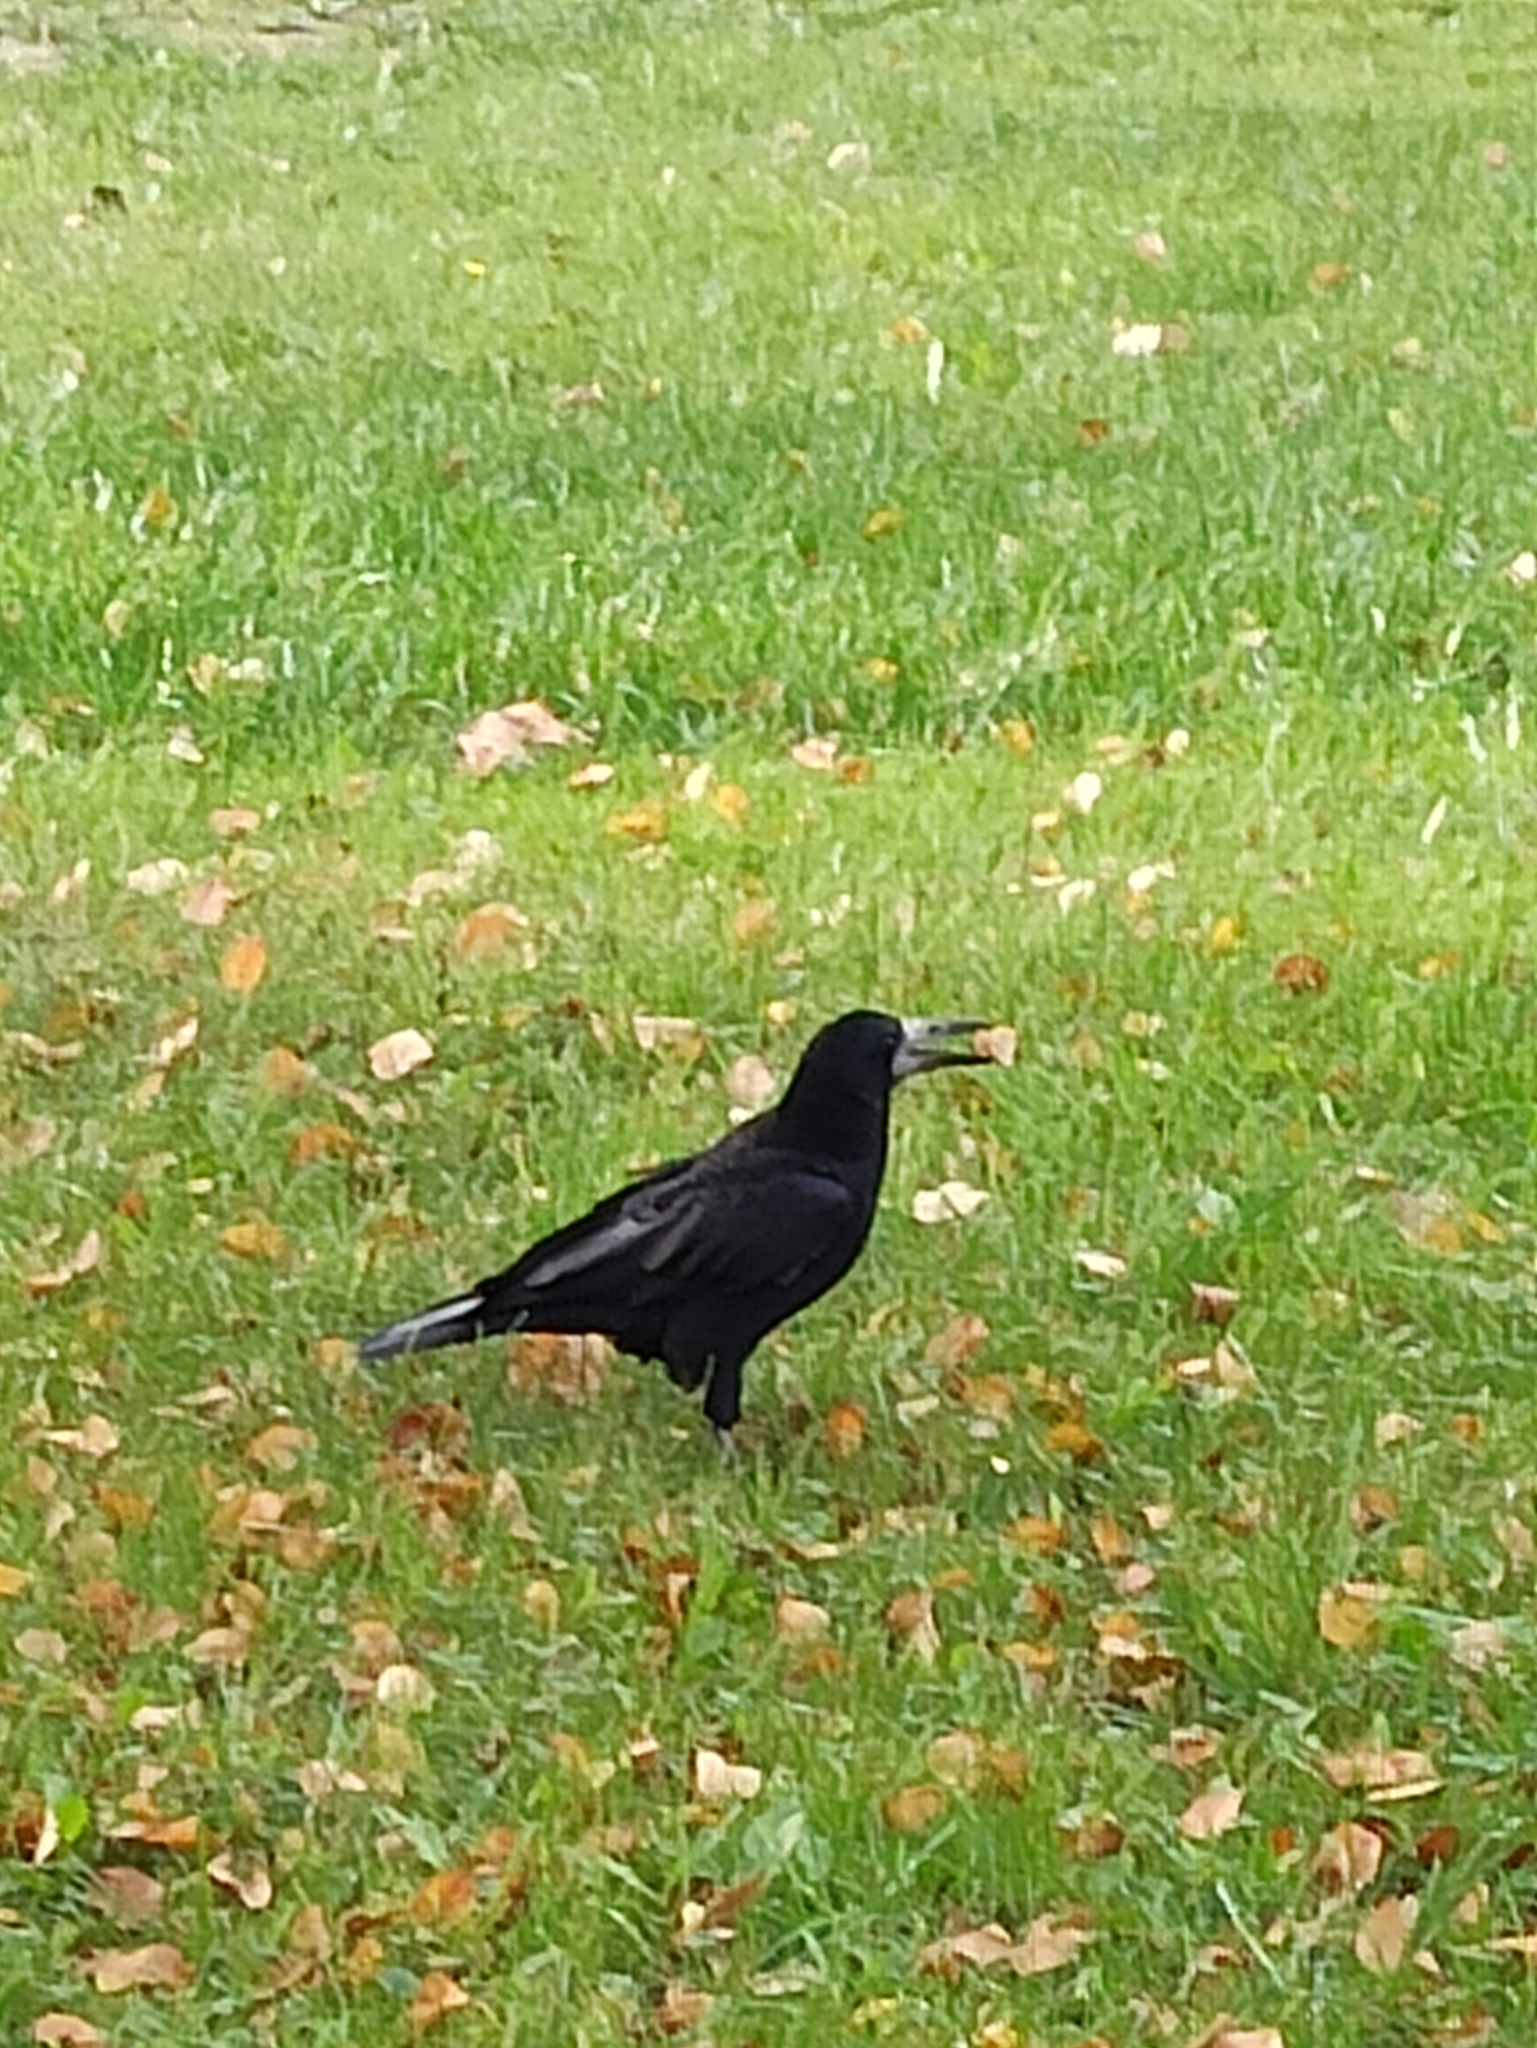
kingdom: Animalia
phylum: Chordata
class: Aves
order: Passeriformes
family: Corvidae
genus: Corvus
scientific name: Corvus frugilegus
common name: Rook
